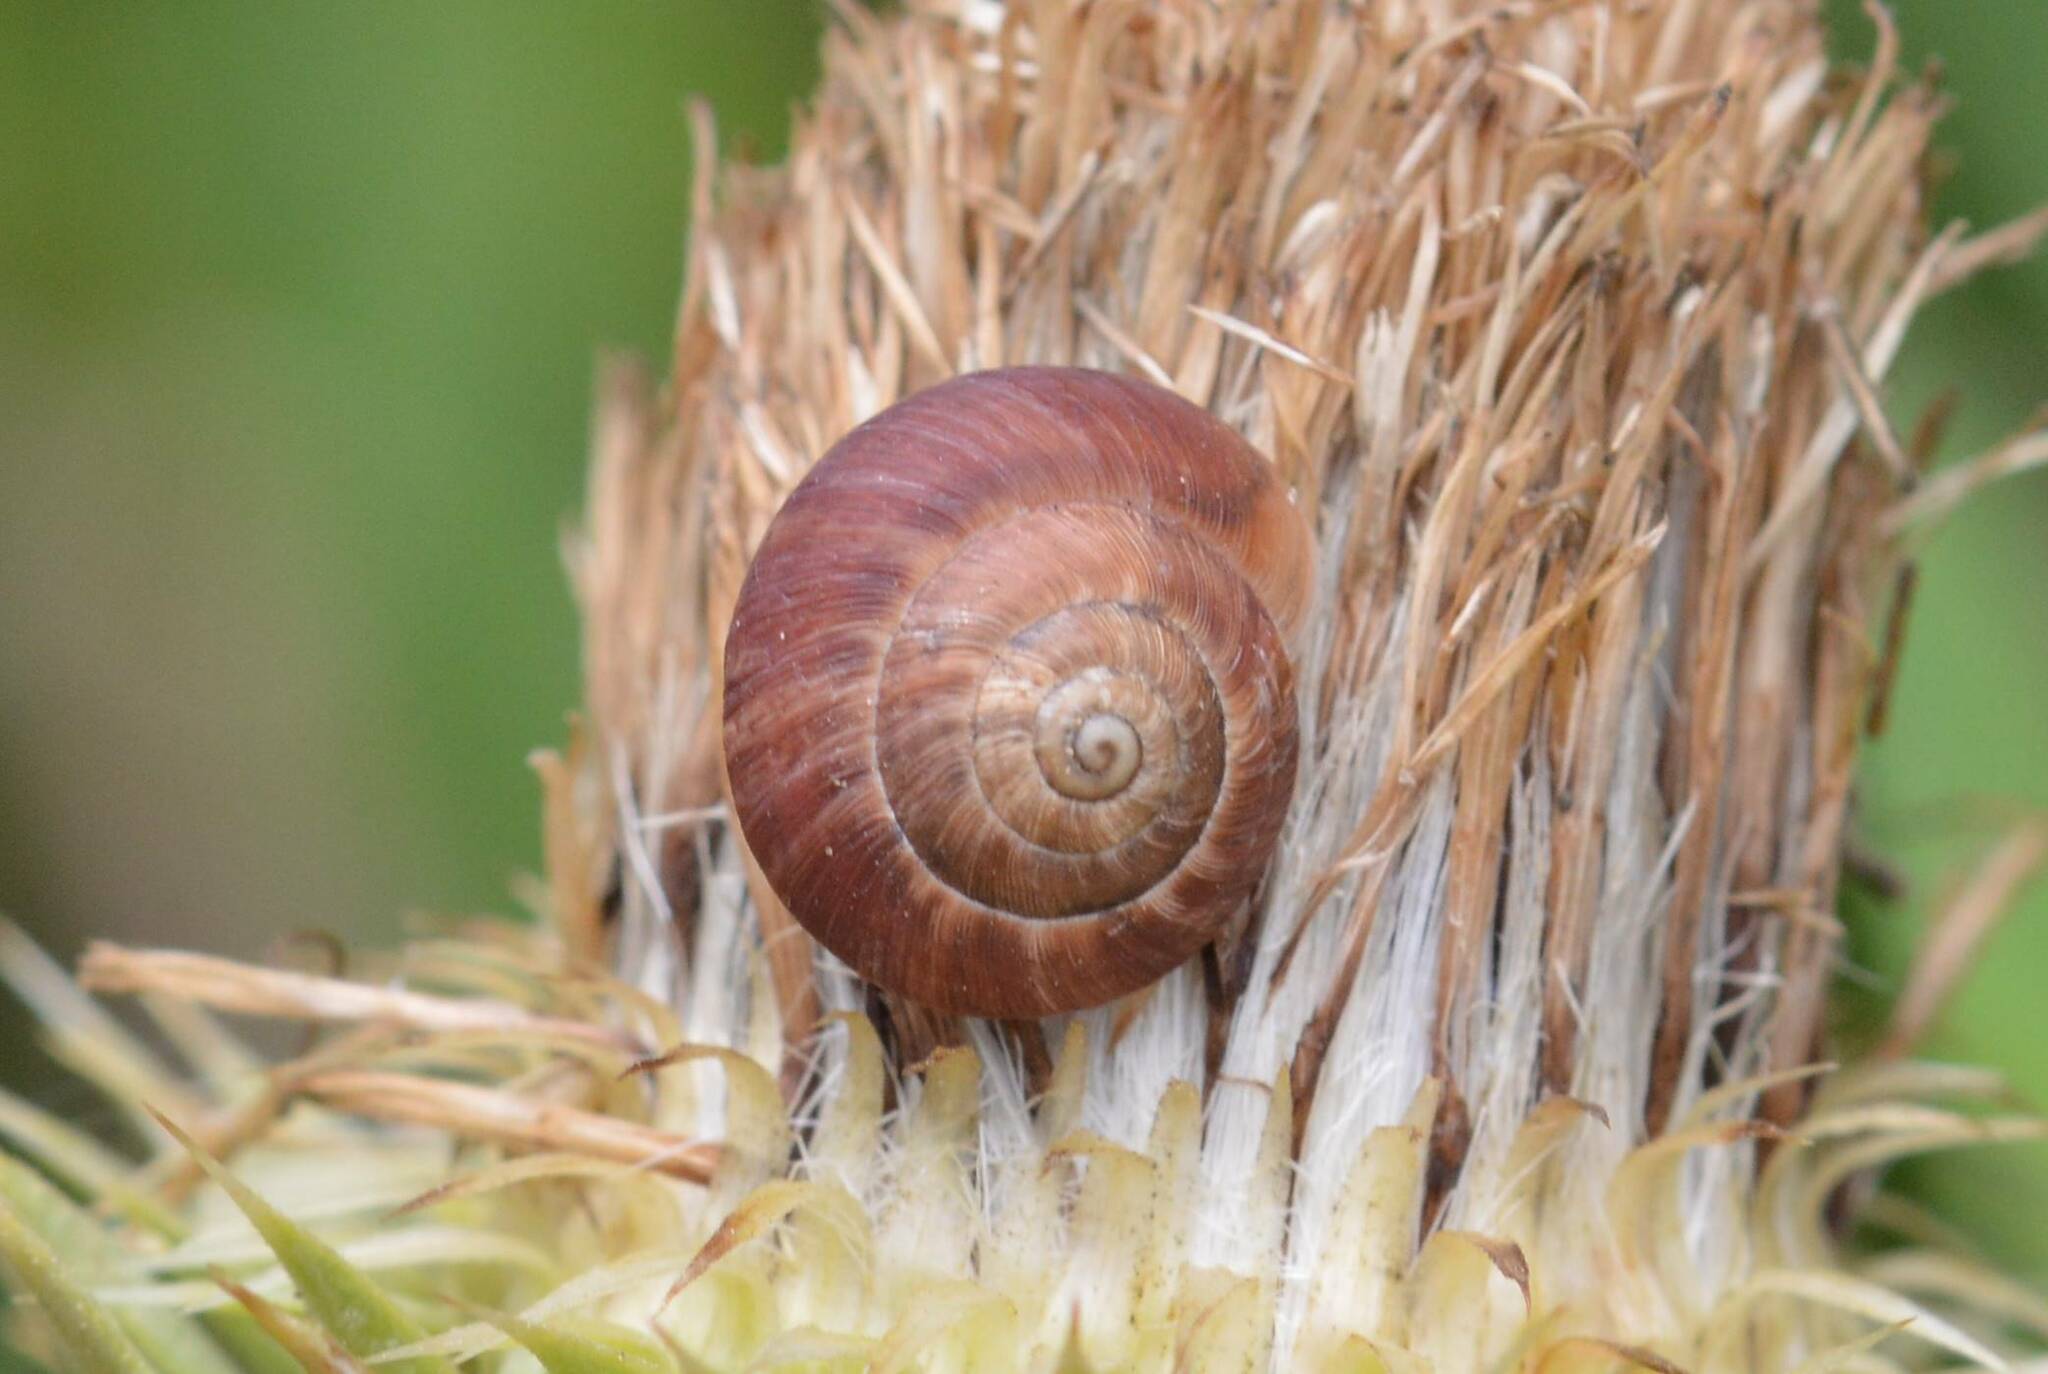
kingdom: Animalia
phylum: Mollusca
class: Gastropoda
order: Stylommatophora
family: Helicidae
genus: Eobania
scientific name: Eobania vermiculata
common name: Chocolateband snail
